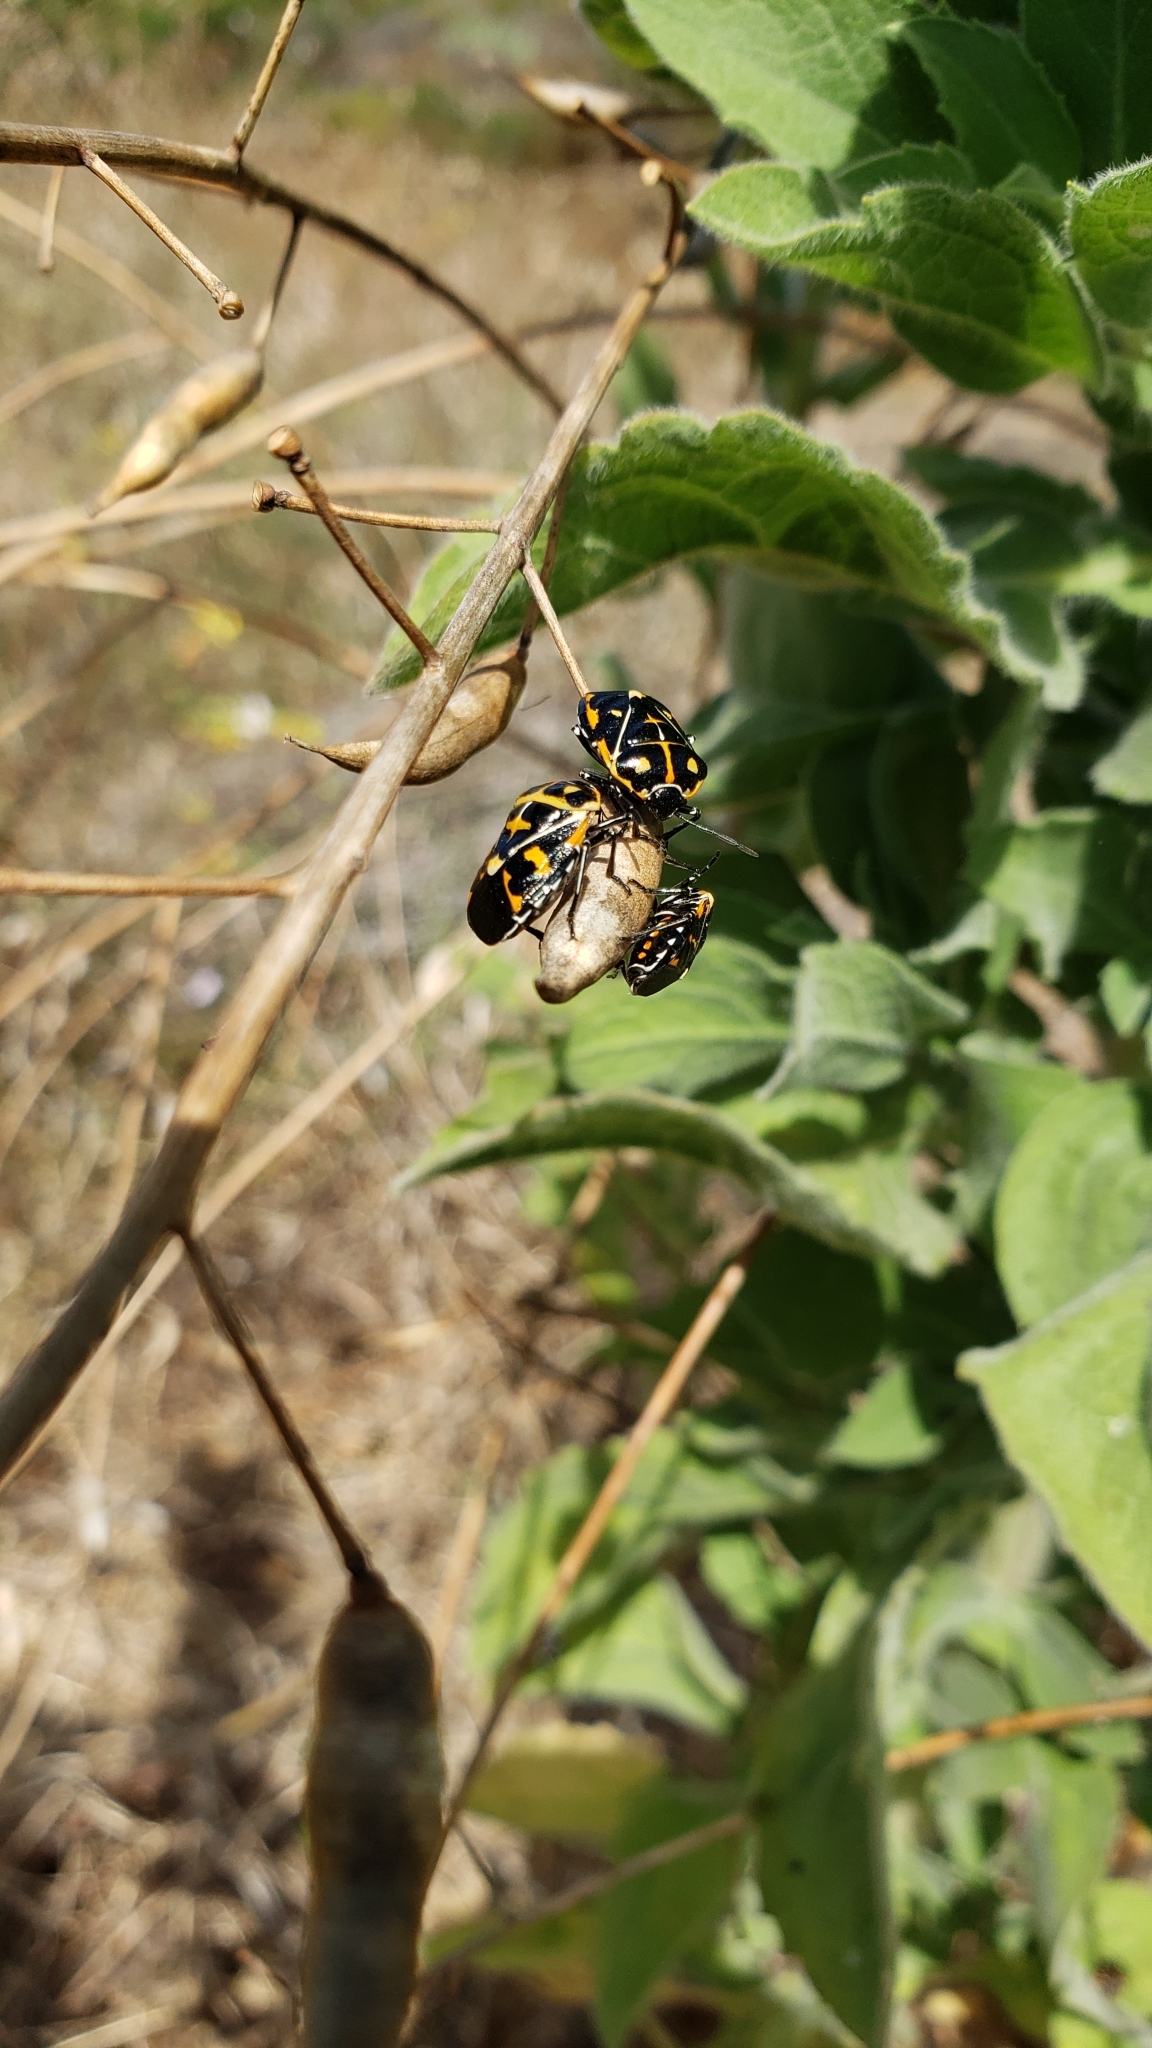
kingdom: Animalia
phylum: Arthropoda
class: Insecta
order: Hemiptera
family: Pentatomidae
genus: Murgantia
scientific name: Murgantia histrionica
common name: Harlequin bug
